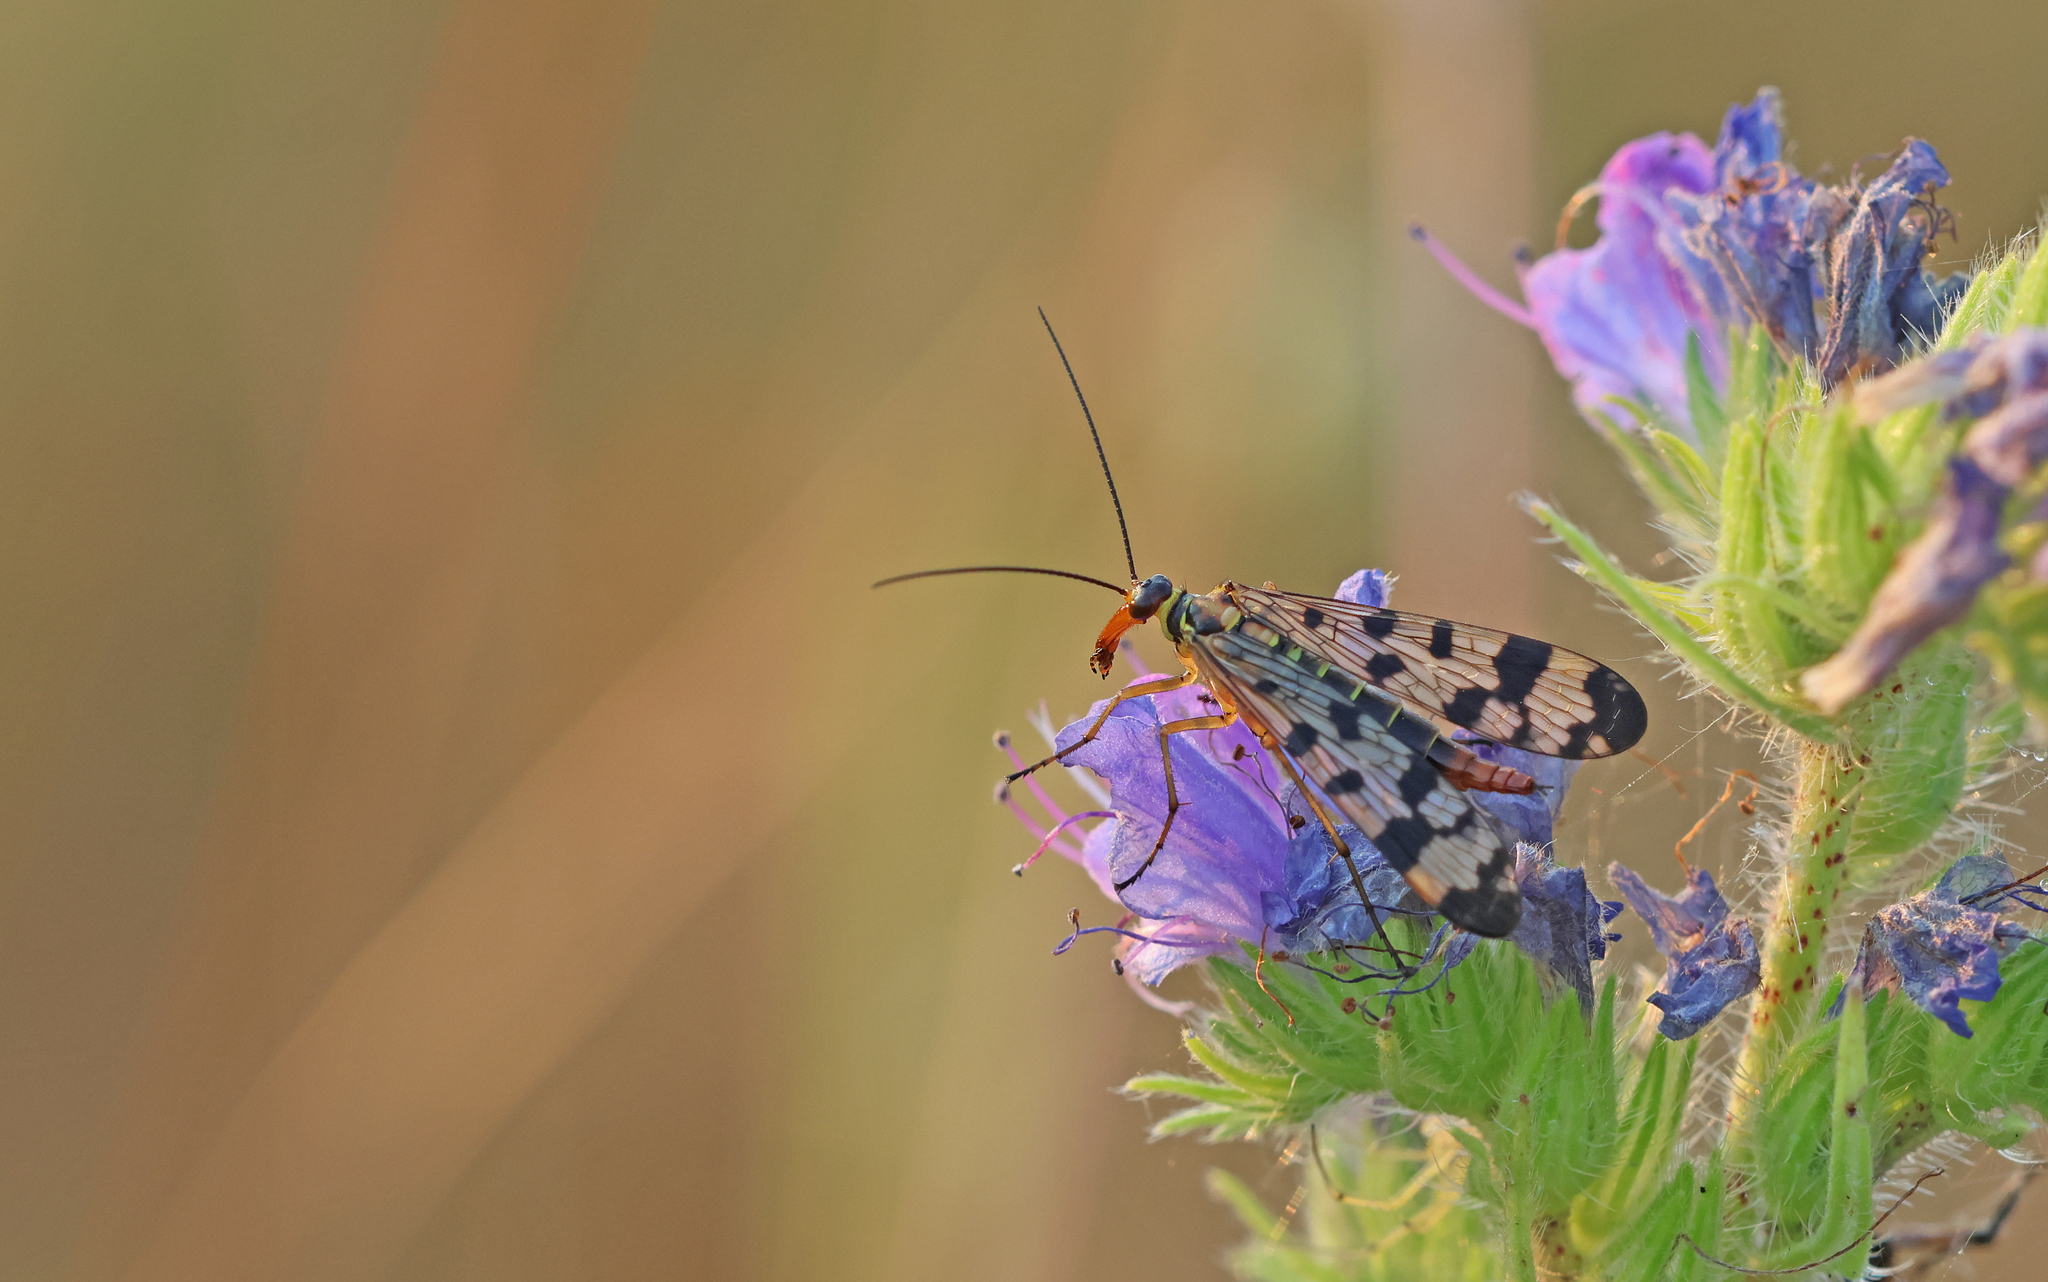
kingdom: Animalia
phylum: Arthropoda
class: Insecta
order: Mecoptera
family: Panorpidae
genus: Panorpa
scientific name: Panorpa communis
